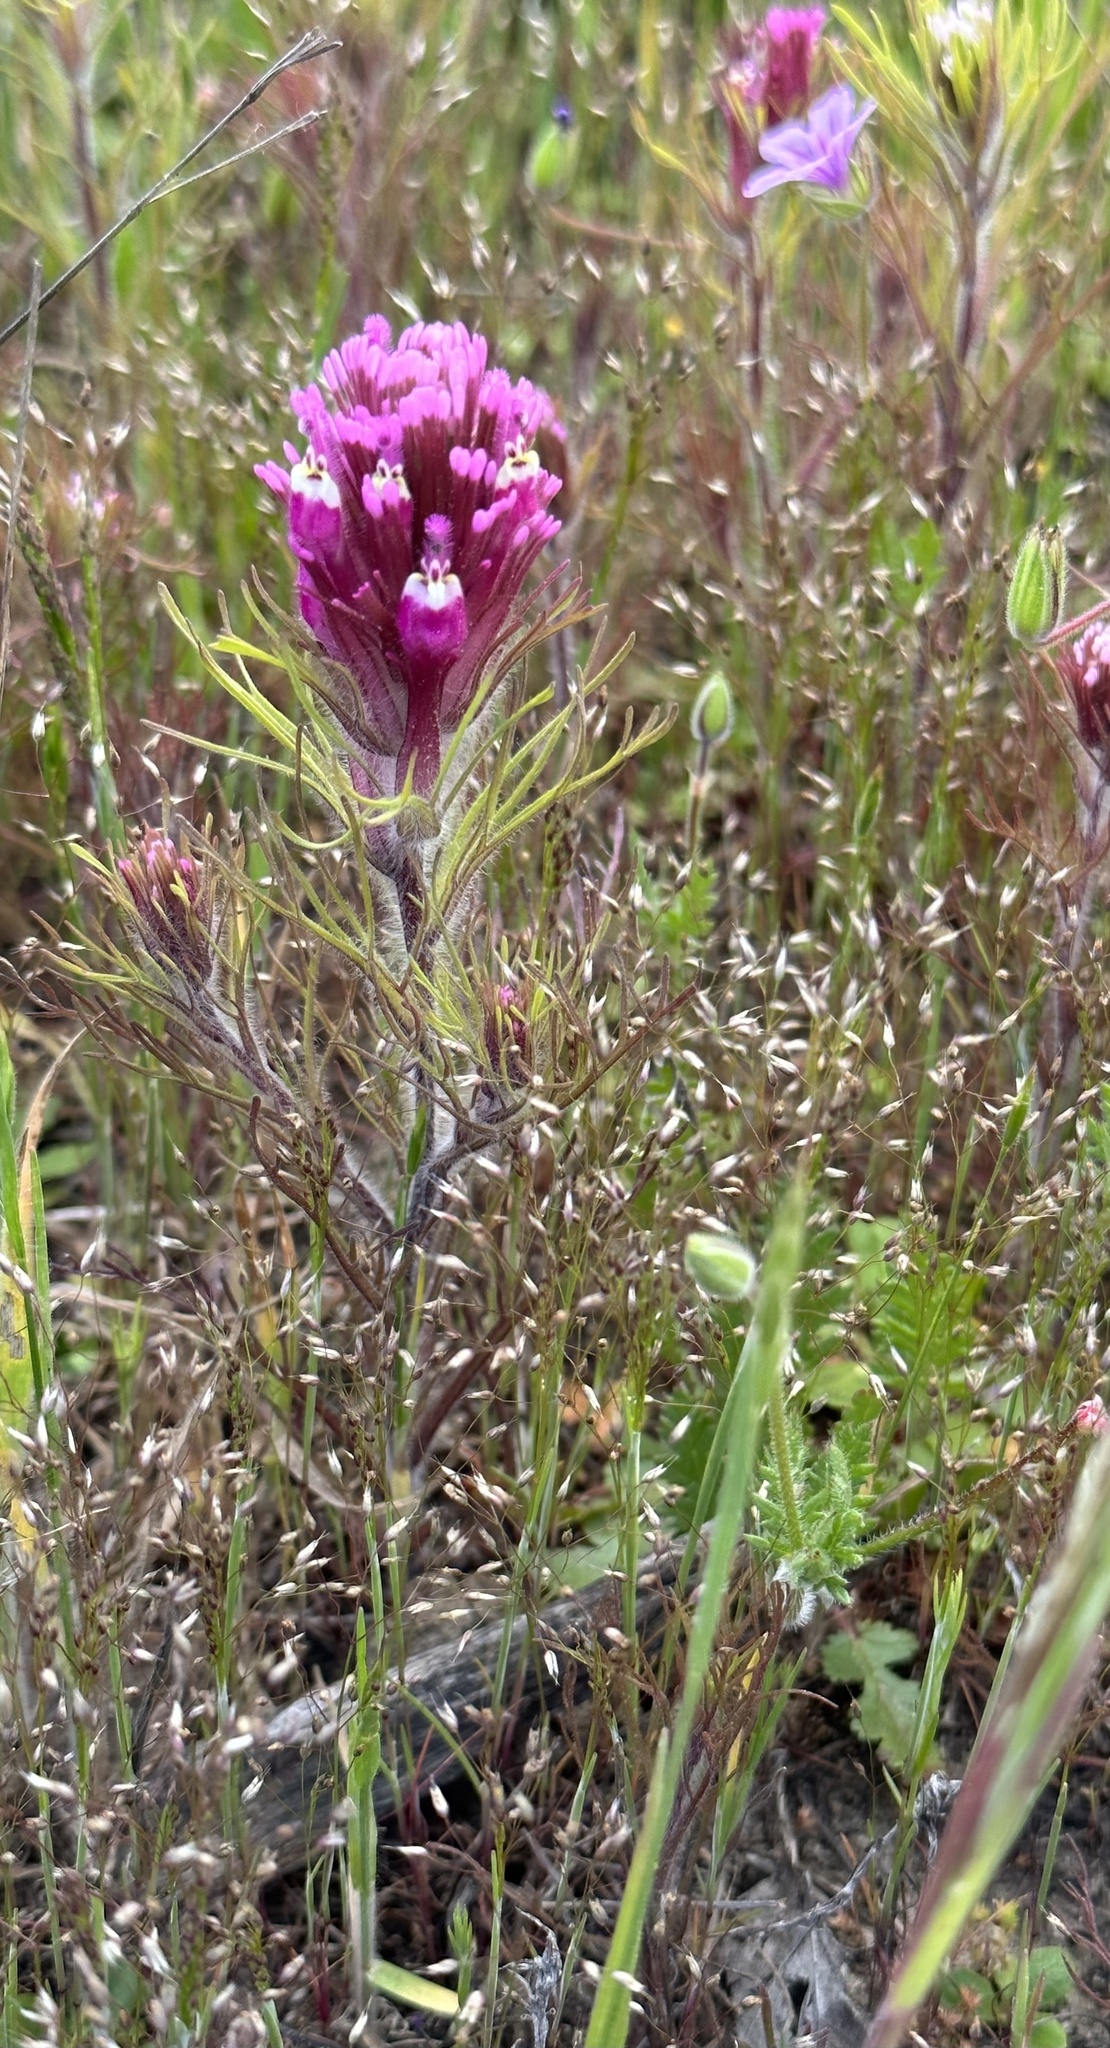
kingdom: Plantae
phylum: Tracheophyta
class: Magnoliopsida
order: Lamiales
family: Orobanchaceae
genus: Castilleja
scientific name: Castilleja exserta
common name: Purple owl-clover
